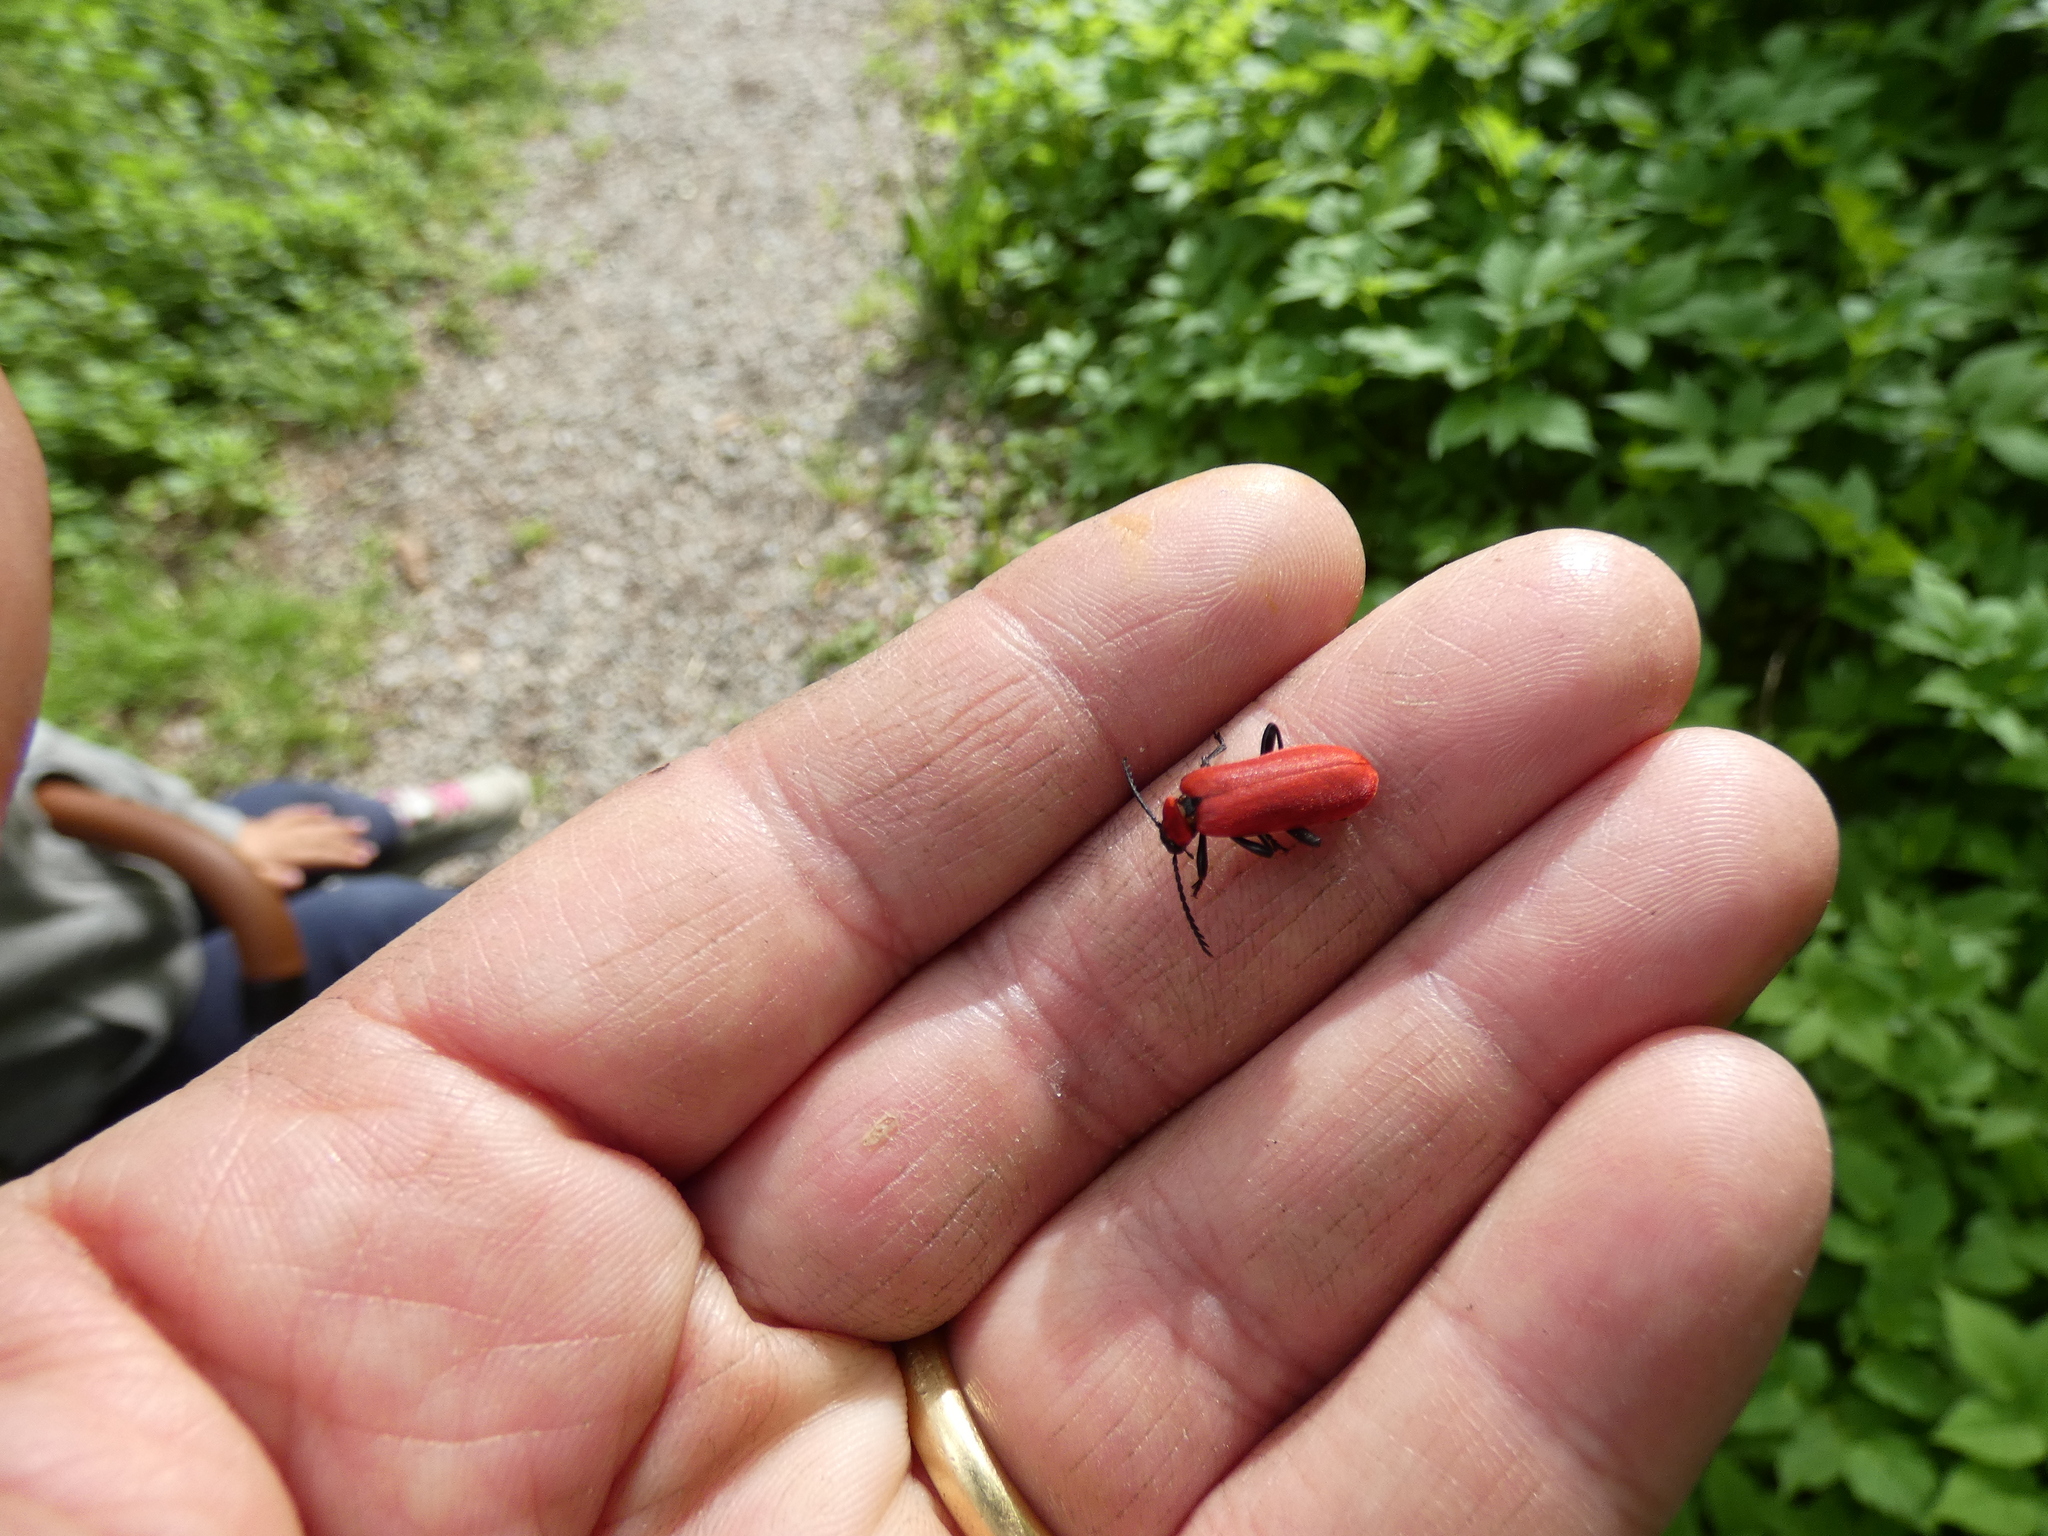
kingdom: Animalia
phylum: Arthropoda
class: Insecta
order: Coleoptera
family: Pyrochroidae
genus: Pyrochroa
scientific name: Pyrochroa coccinea
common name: Black-headed cardinal beetle
